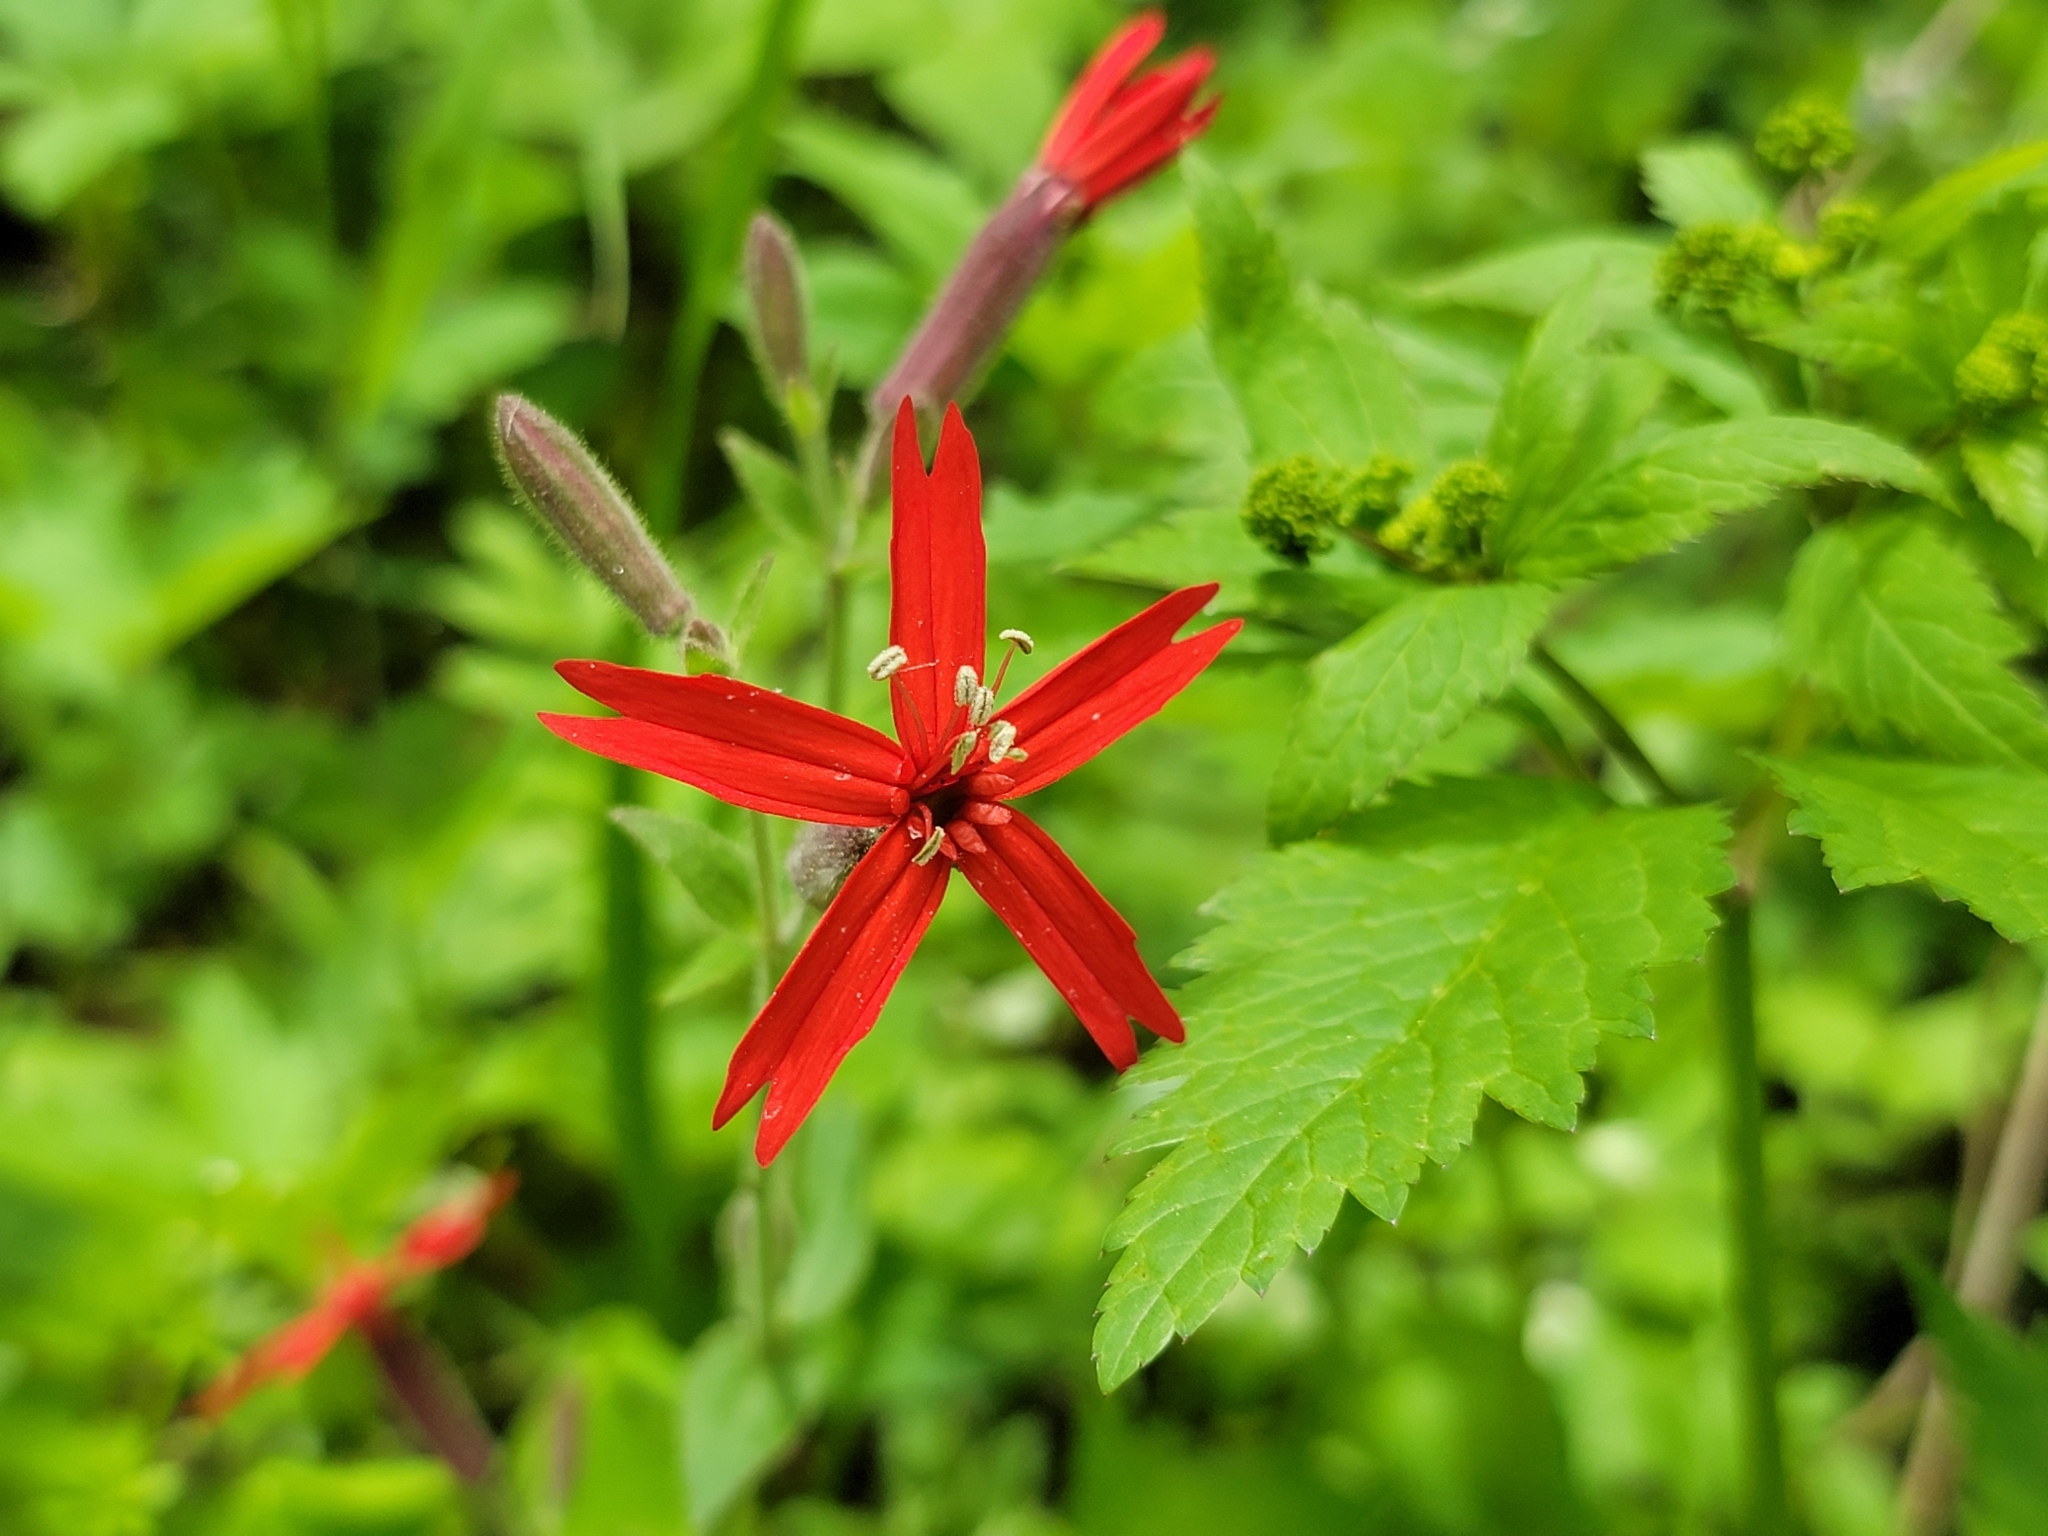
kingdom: Plantae
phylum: Tracheophyta
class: Magnoliopsida
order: Caryophyllales
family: Caryophyllaceae
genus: Silene
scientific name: Silene virginica
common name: Fire-pink
